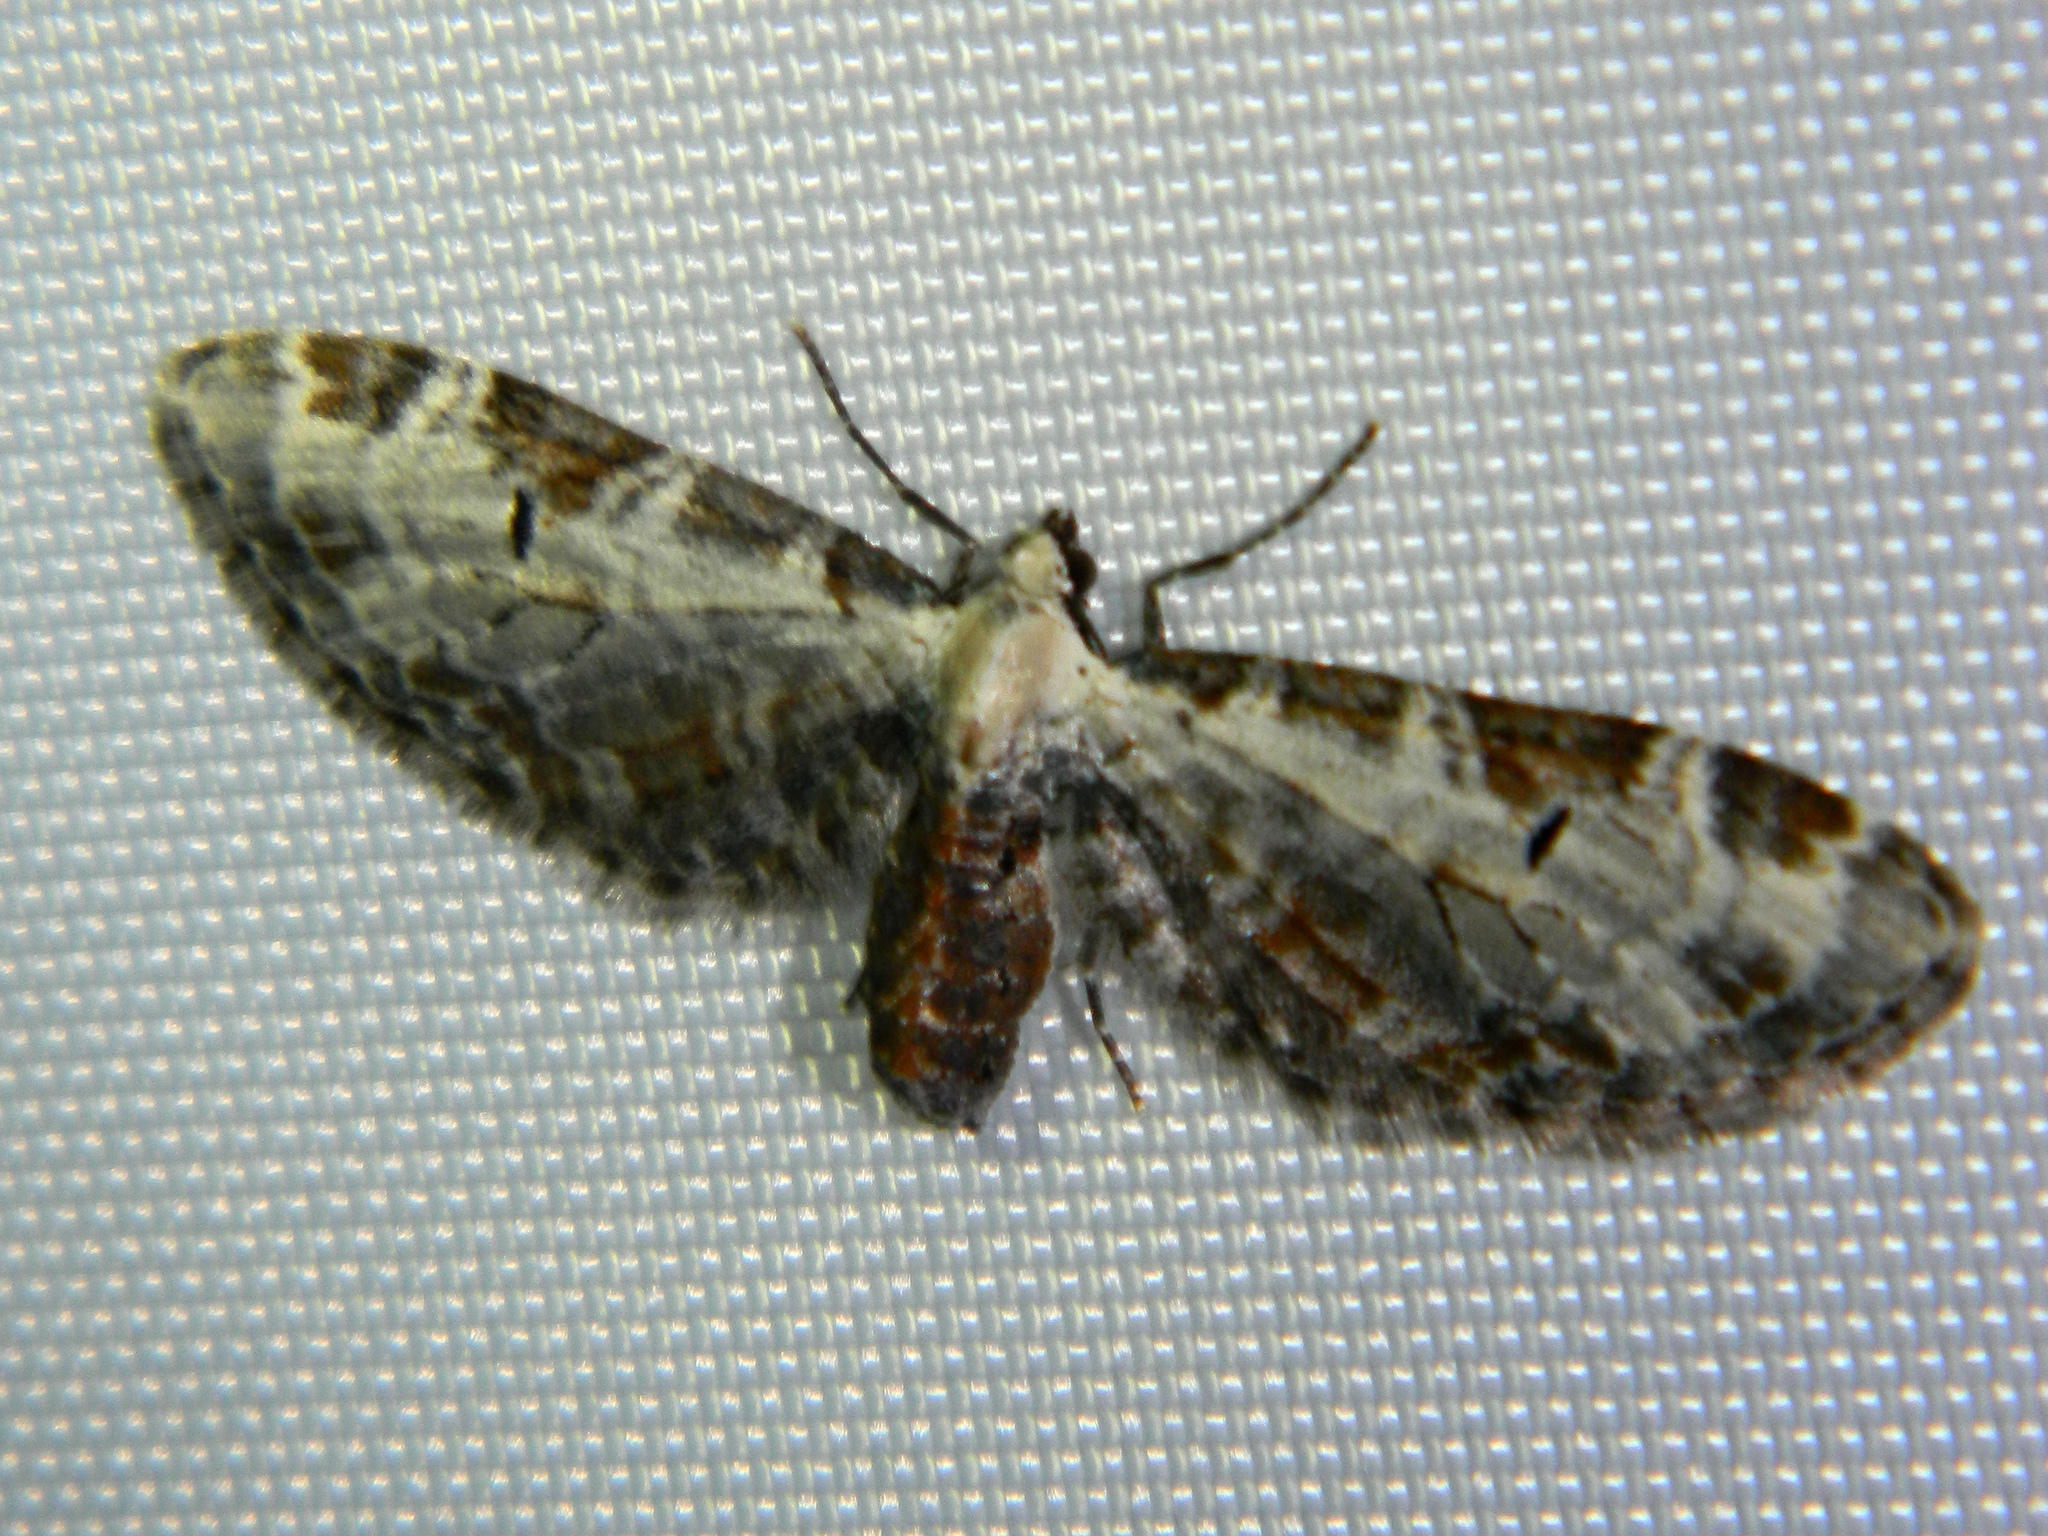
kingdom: Animalia
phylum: Arthropoda
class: Insecta
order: Lepidoptera
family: Geometridae
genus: Eupithecia
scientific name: Eupithecia ravocostaliata
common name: Great varigated pug
